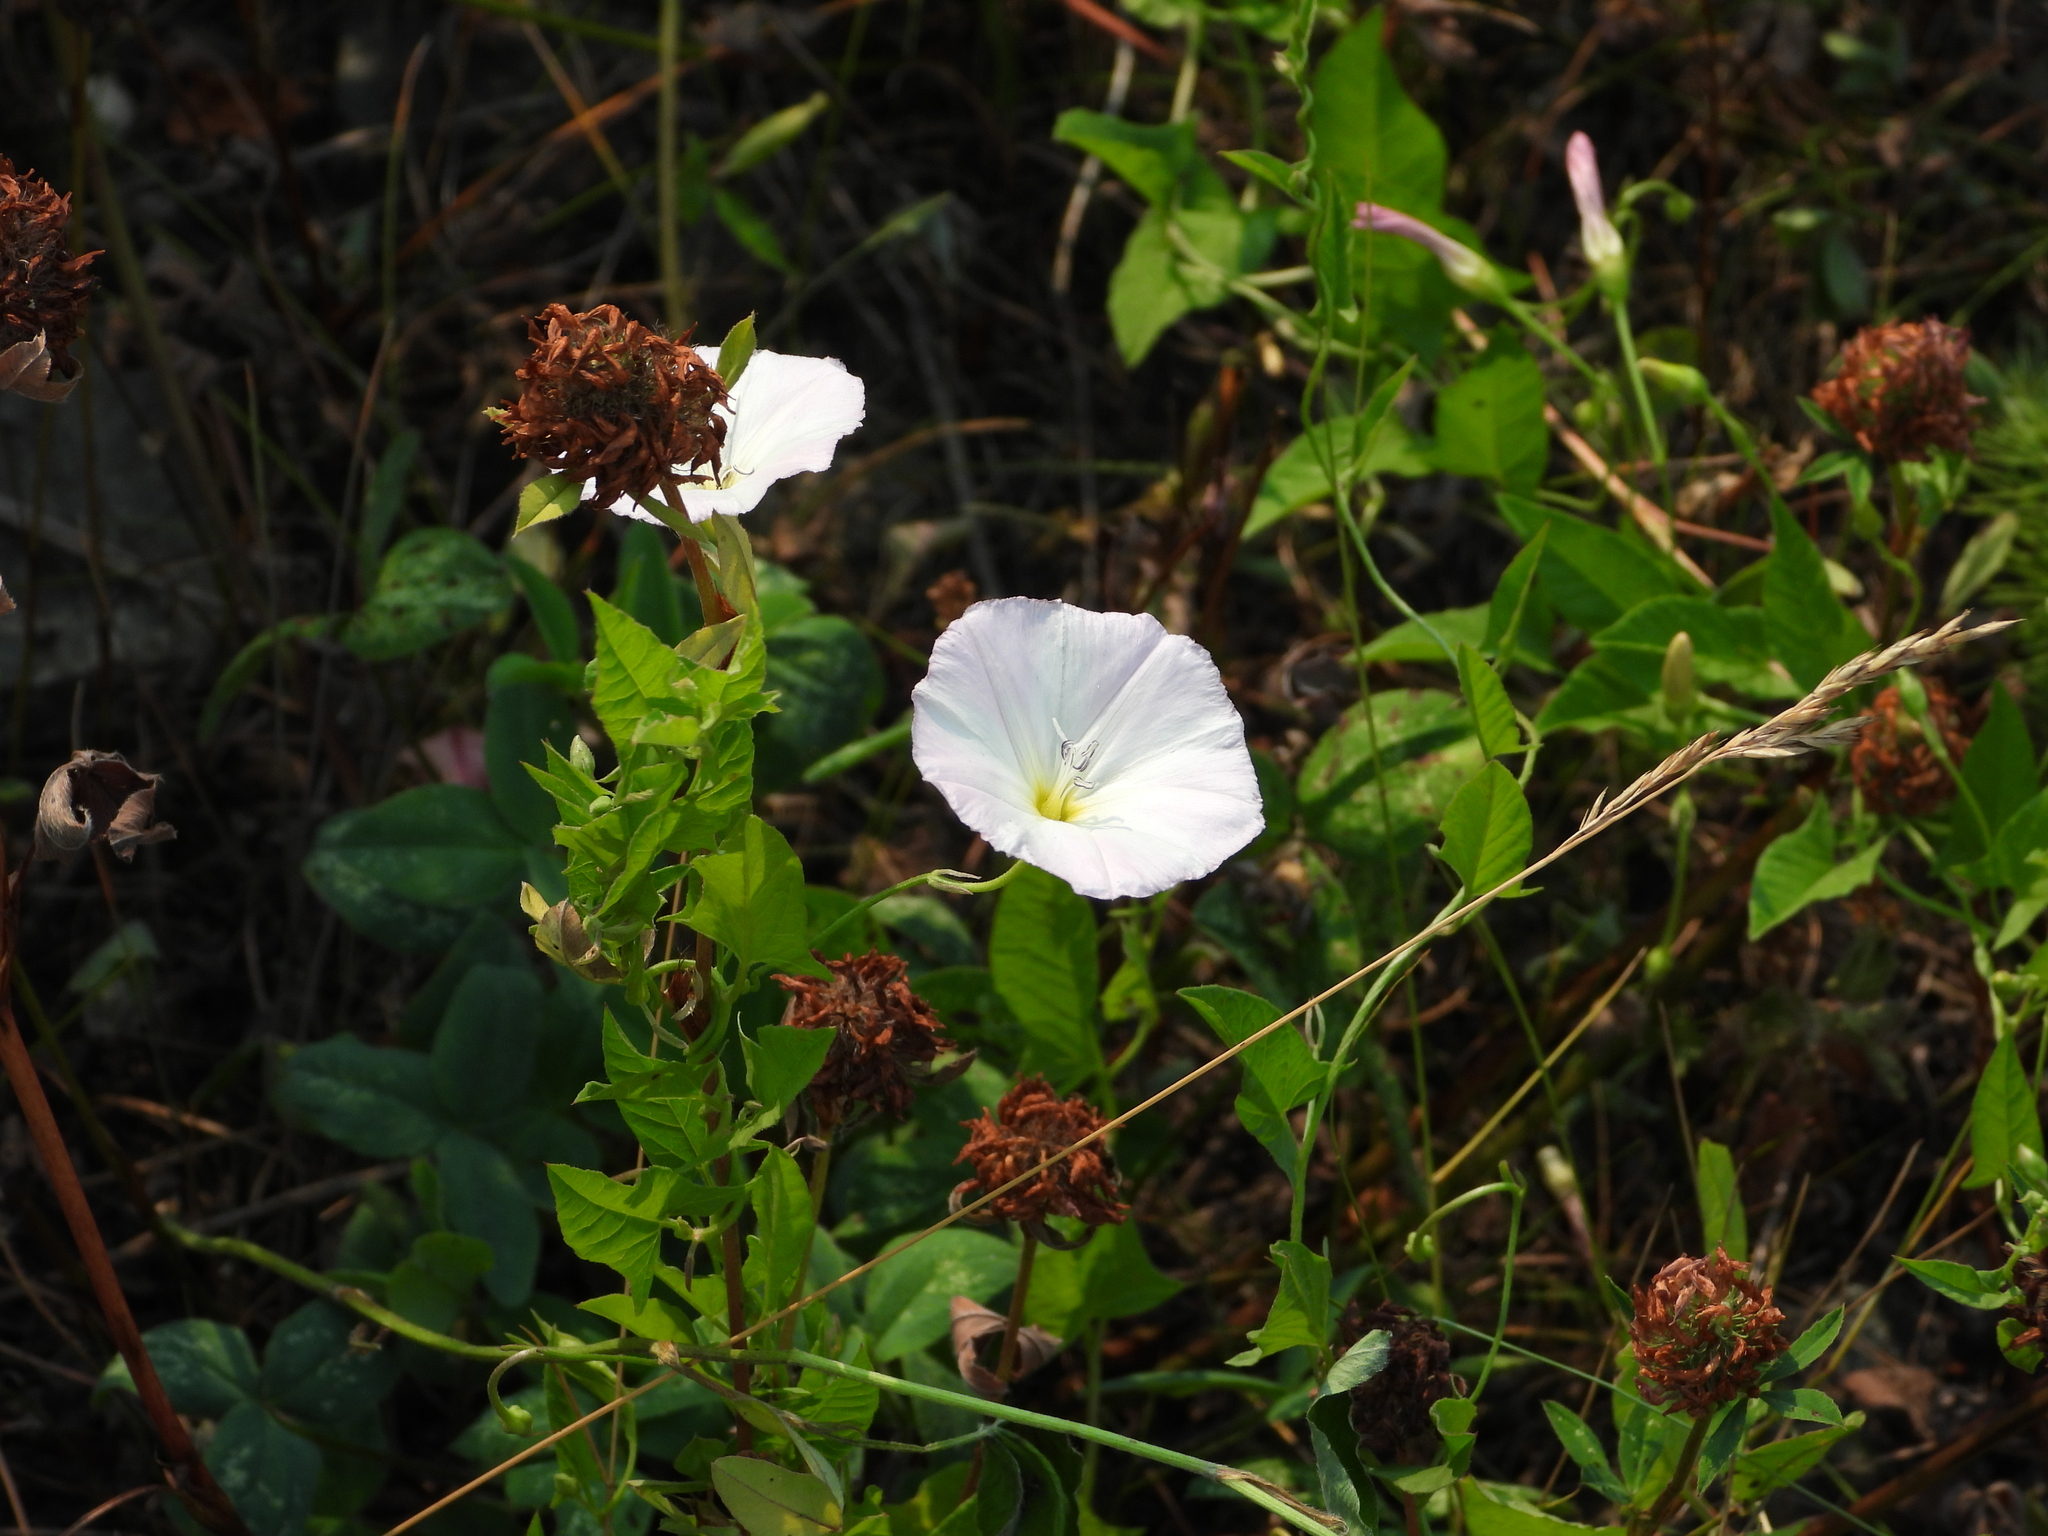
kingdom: Plantae
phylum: Tracheophyta
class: Magnoliopsida
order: Solanales
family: Convolvulaceae
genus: Convolvulus
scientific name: Convolvulus arvensis
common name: Field bindweed
